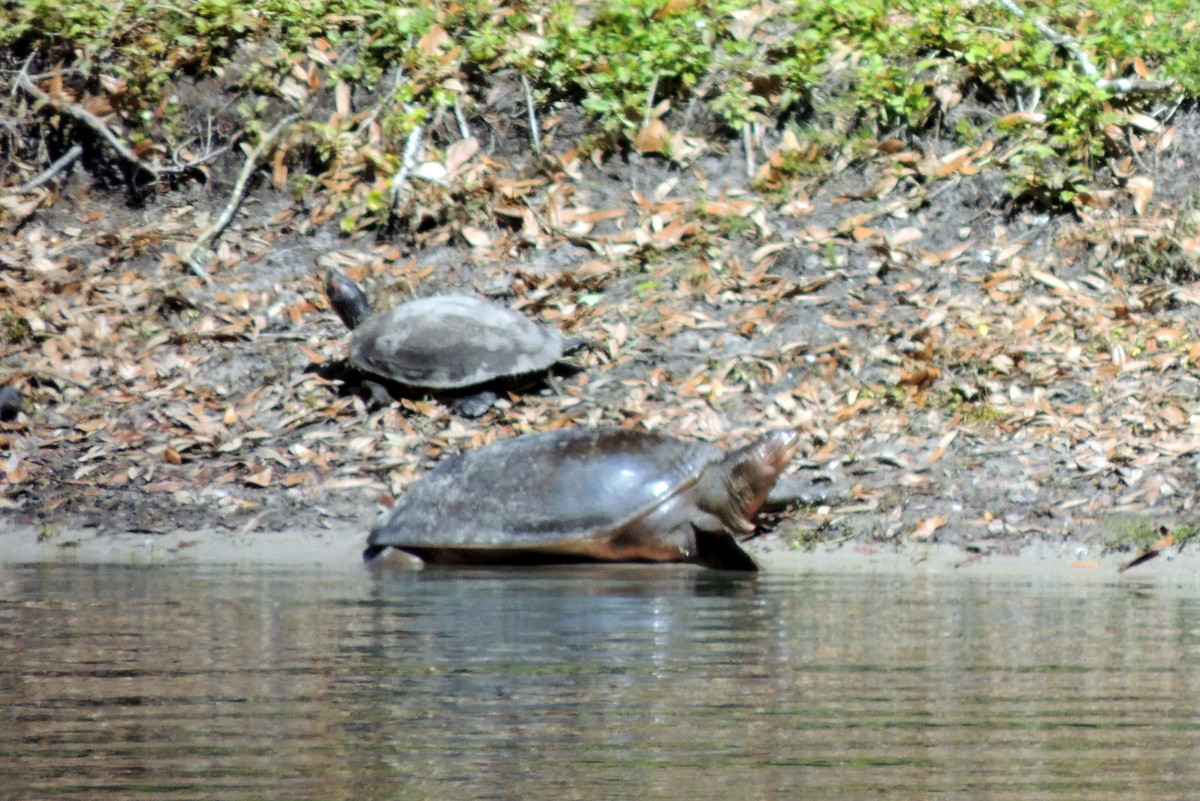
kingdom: Animalia
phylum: Chordata
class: Testudines
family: Trionychidae
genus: Apalone
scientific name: Apalone ferox
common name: Florida softshell turtle
